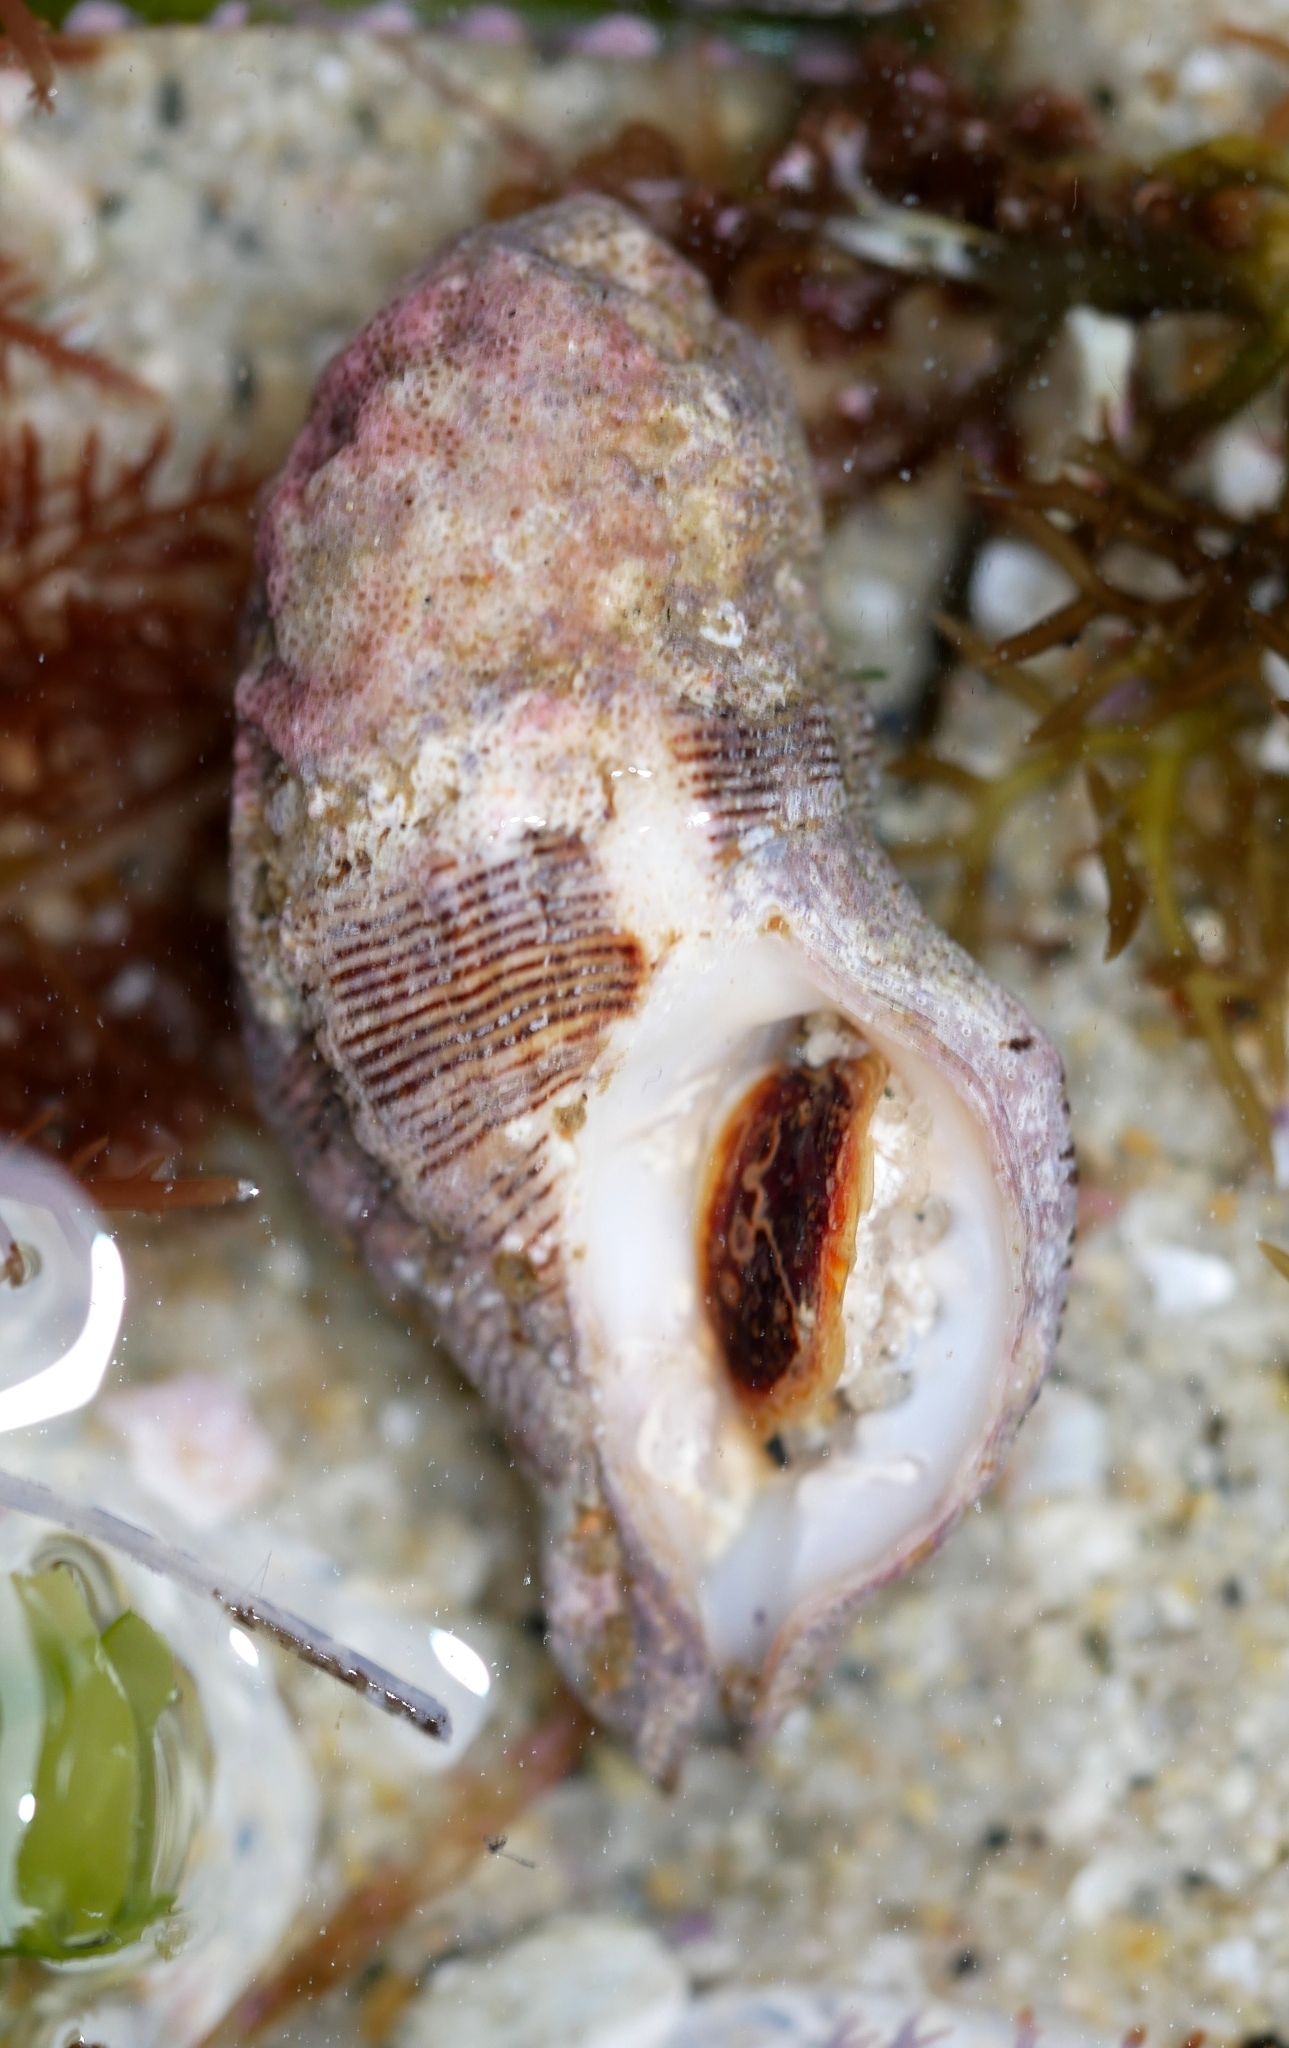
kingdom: Animalia
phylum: Mollusca
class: Gastropoda
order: Neogastropoda
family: Muricidae
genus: Roperia
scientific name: Roperia poulsoni
